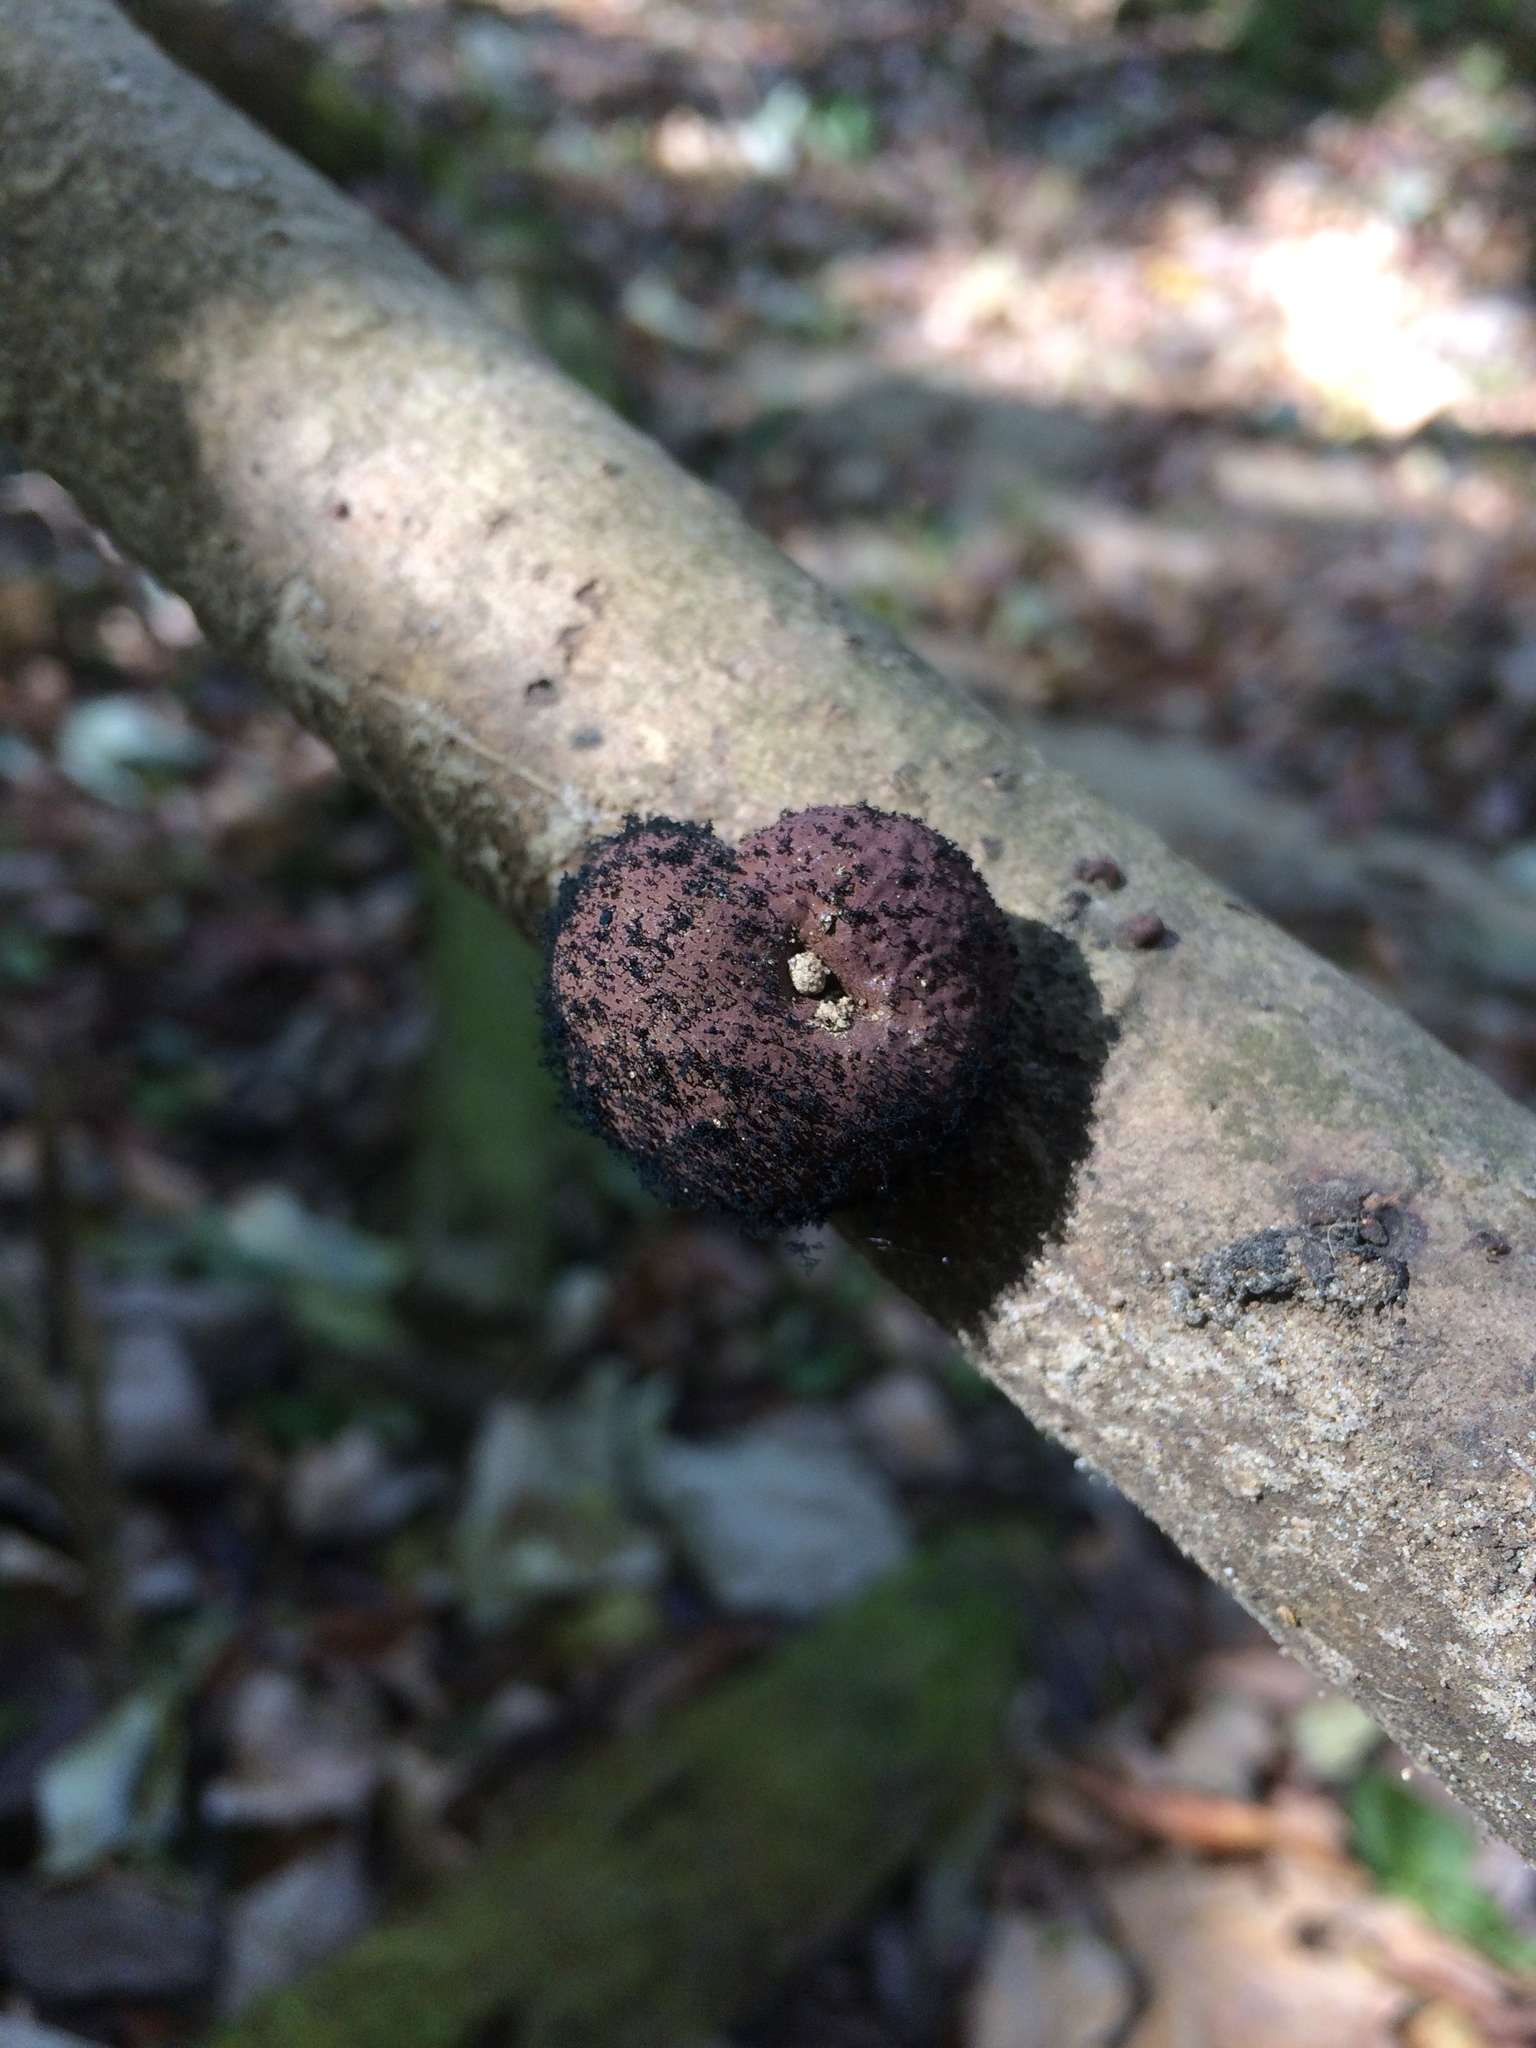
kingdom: Fungi
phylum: Ascomycota
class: Sordariomycetes
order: Xylariales
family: Hypoxylaceae
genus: Daldinia
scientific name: Daldinia childiae
